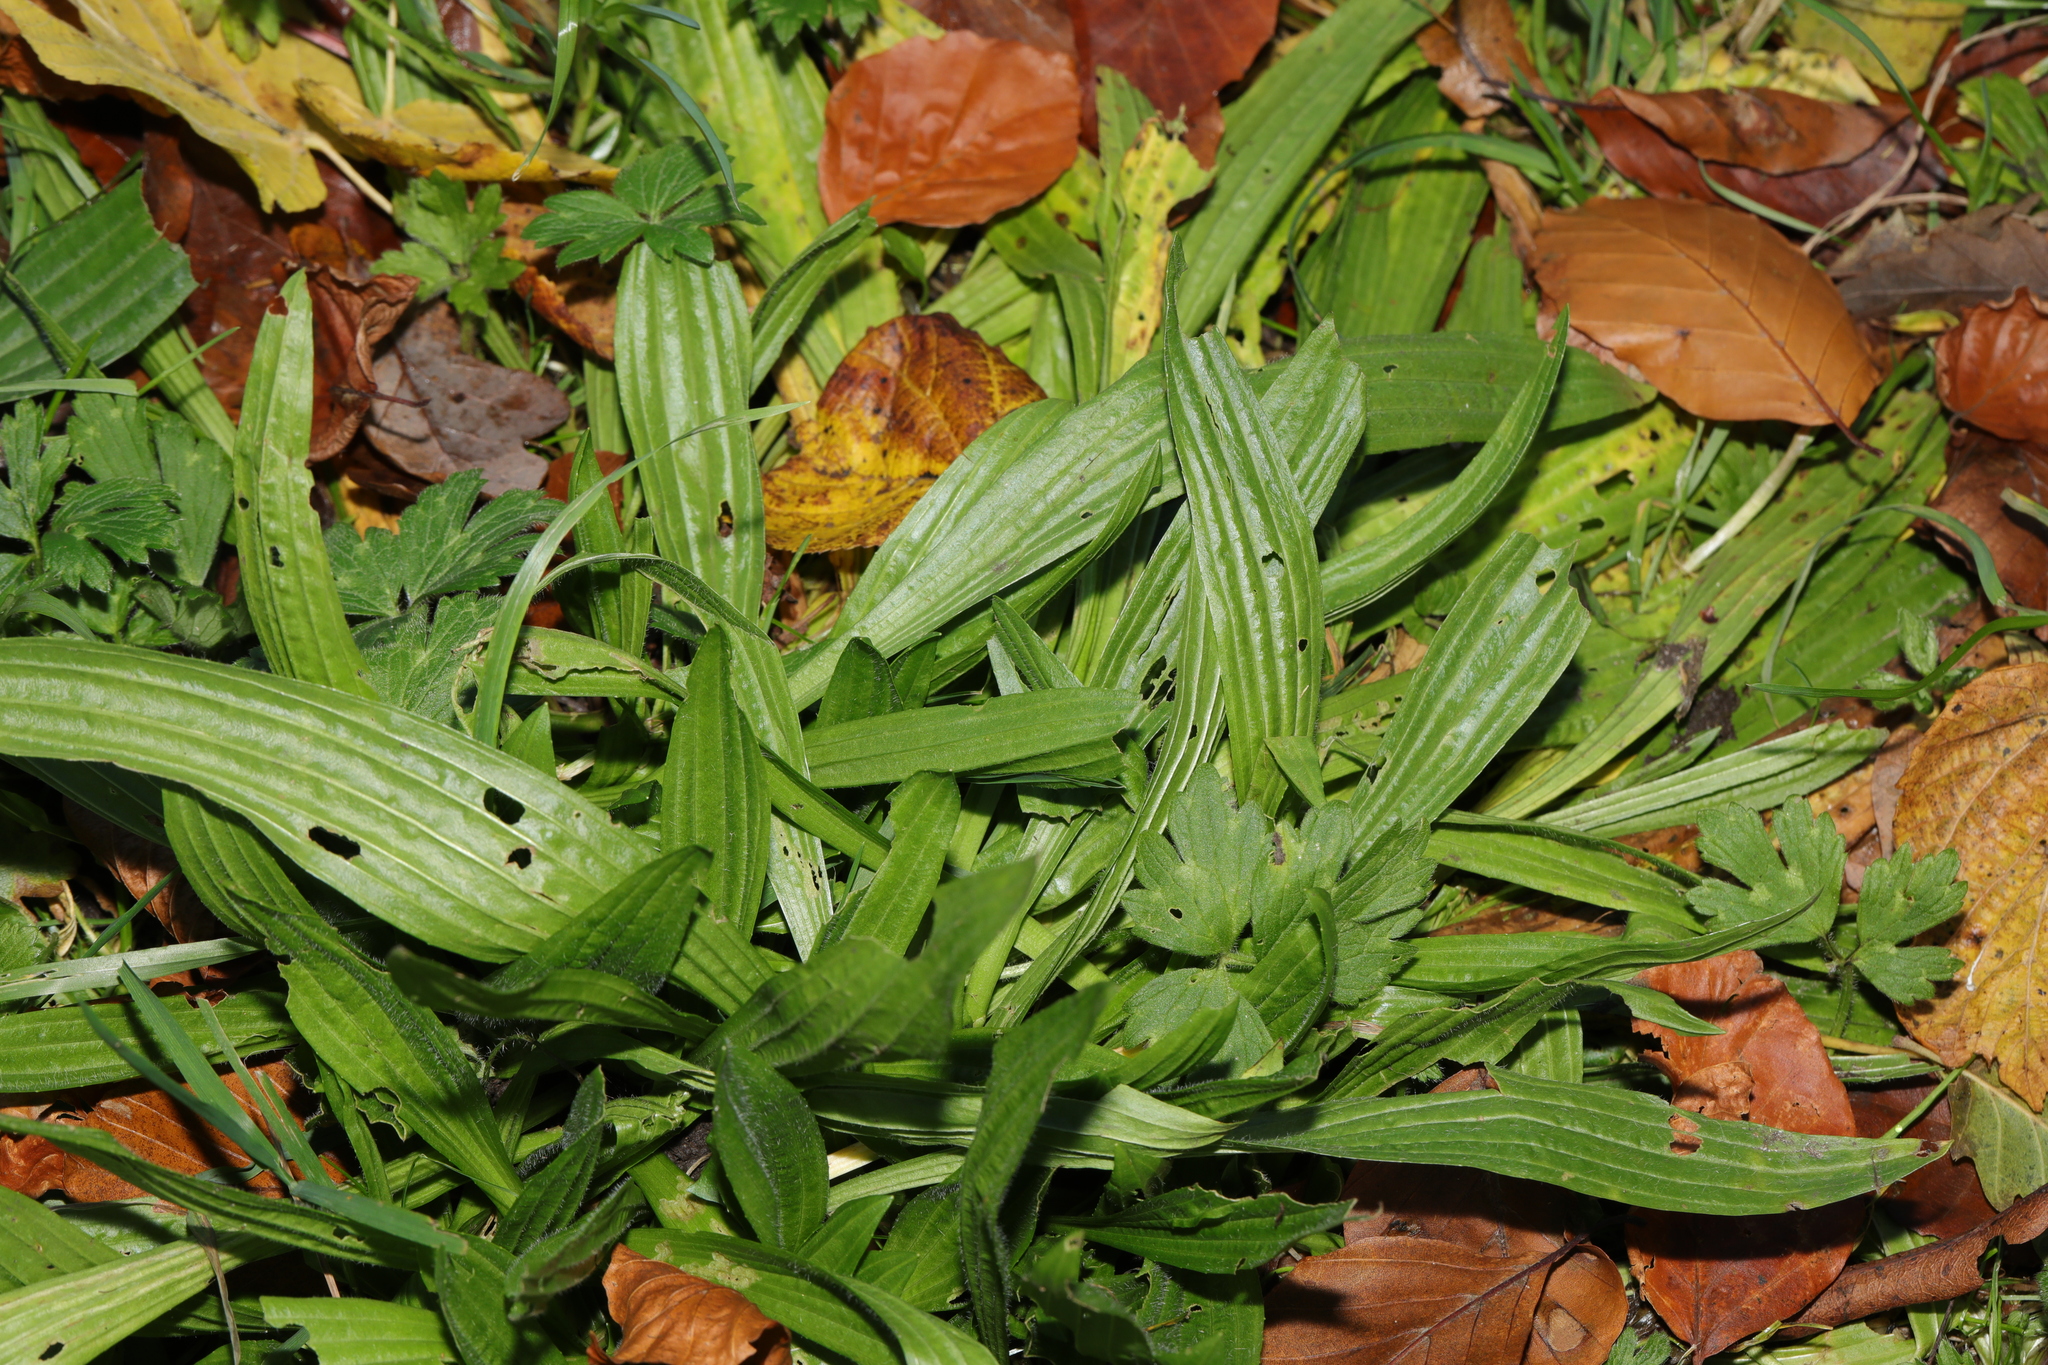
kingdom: Plantae
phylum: Tracheophyta
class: Magnoliopsida
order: Lamiales
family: Plantaginaceae
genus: Plantago
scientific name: Plantago lanceolata
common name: Ribwort plantain
